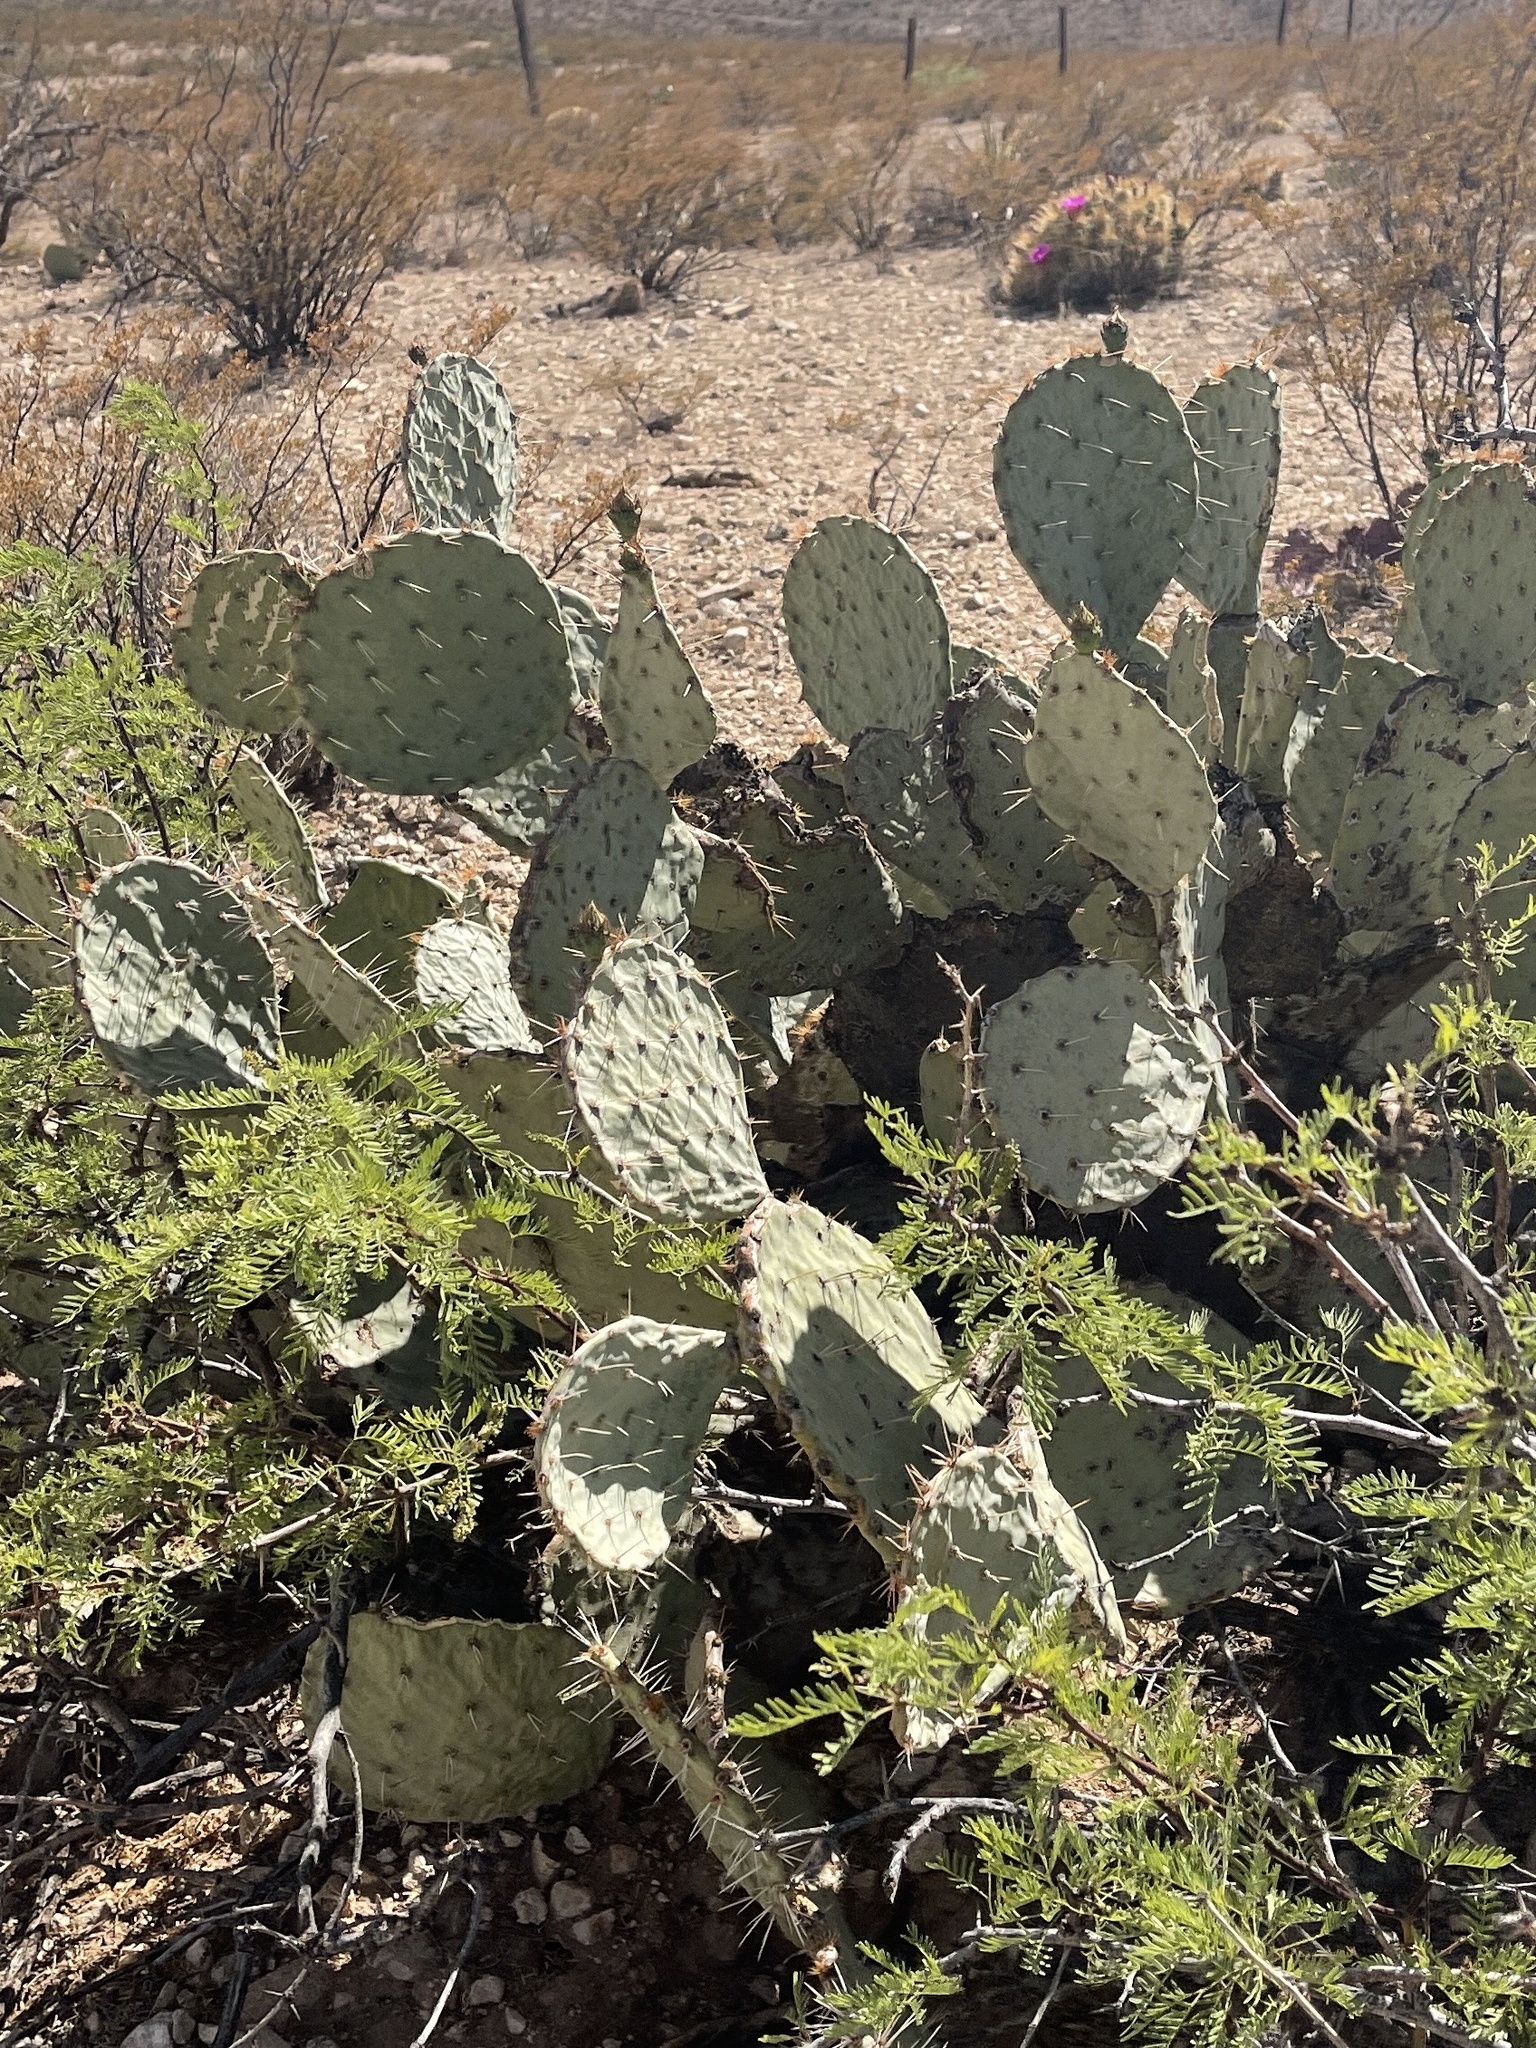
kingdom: Plantae
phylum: Tracheophyta
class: Magnoliopsida
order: Caryophyllales
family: Cactaceae
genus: Opuntia
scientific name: Opuntia engelmannii
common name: Cactus-apple
